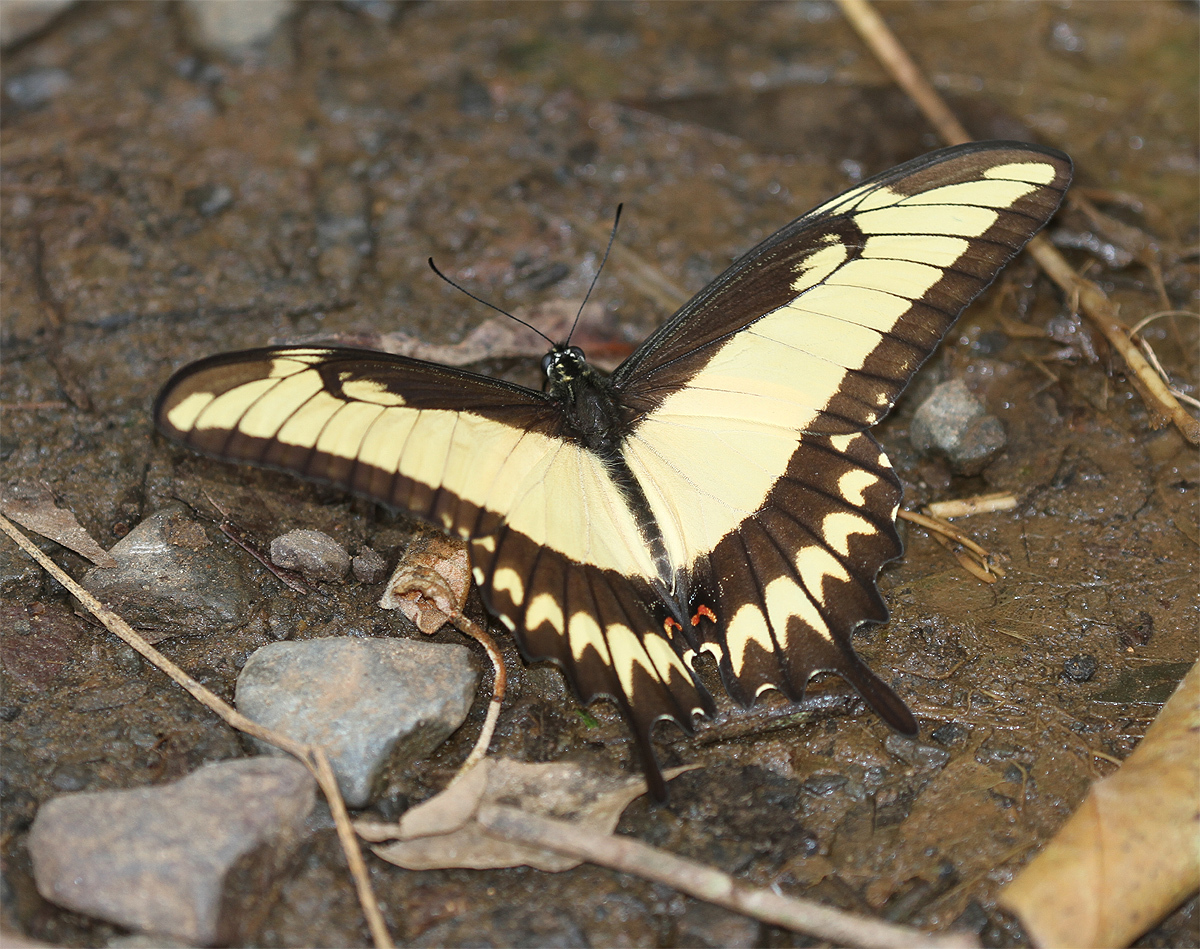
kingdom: Animalia
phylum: Arthropoda
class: Insecta
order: Lepidoptera
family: Papilionidae
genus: Papilio
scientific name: Papilio astyalus
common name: Astyalus swallowtail
